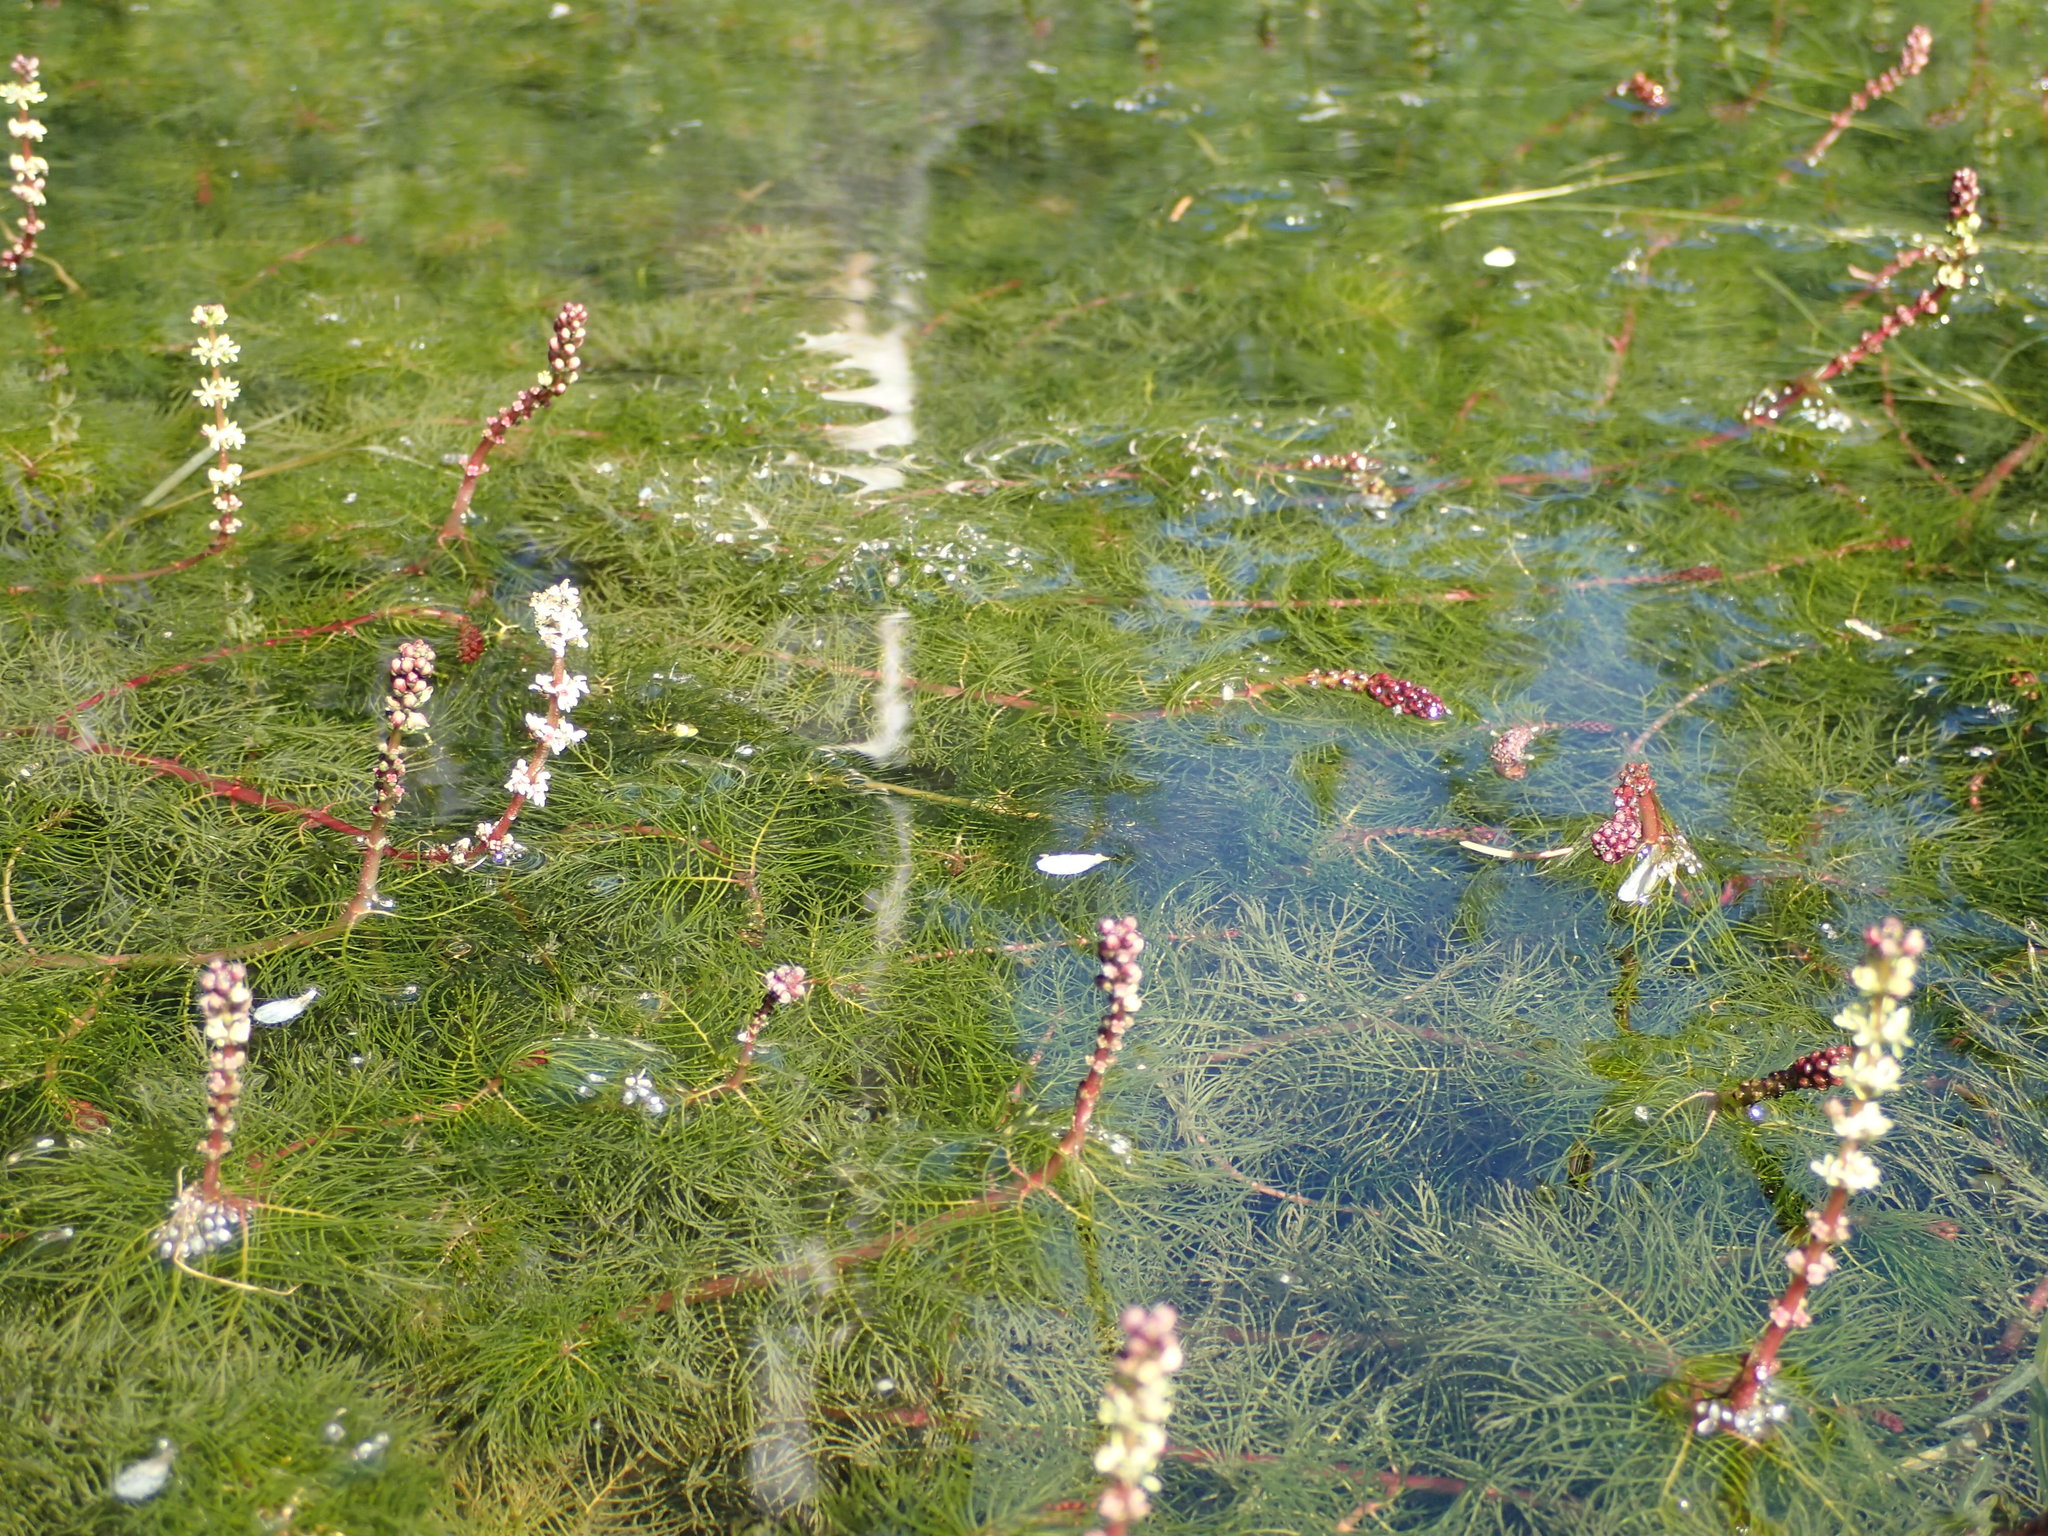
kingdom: Plantae
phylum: Tracheophyta
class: Magnoliopsida
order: Saxifragales
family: Haloragaceae
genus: Myriophyllum
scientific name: Myriophyllum sibiricum
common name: Siberian water-milfoil
